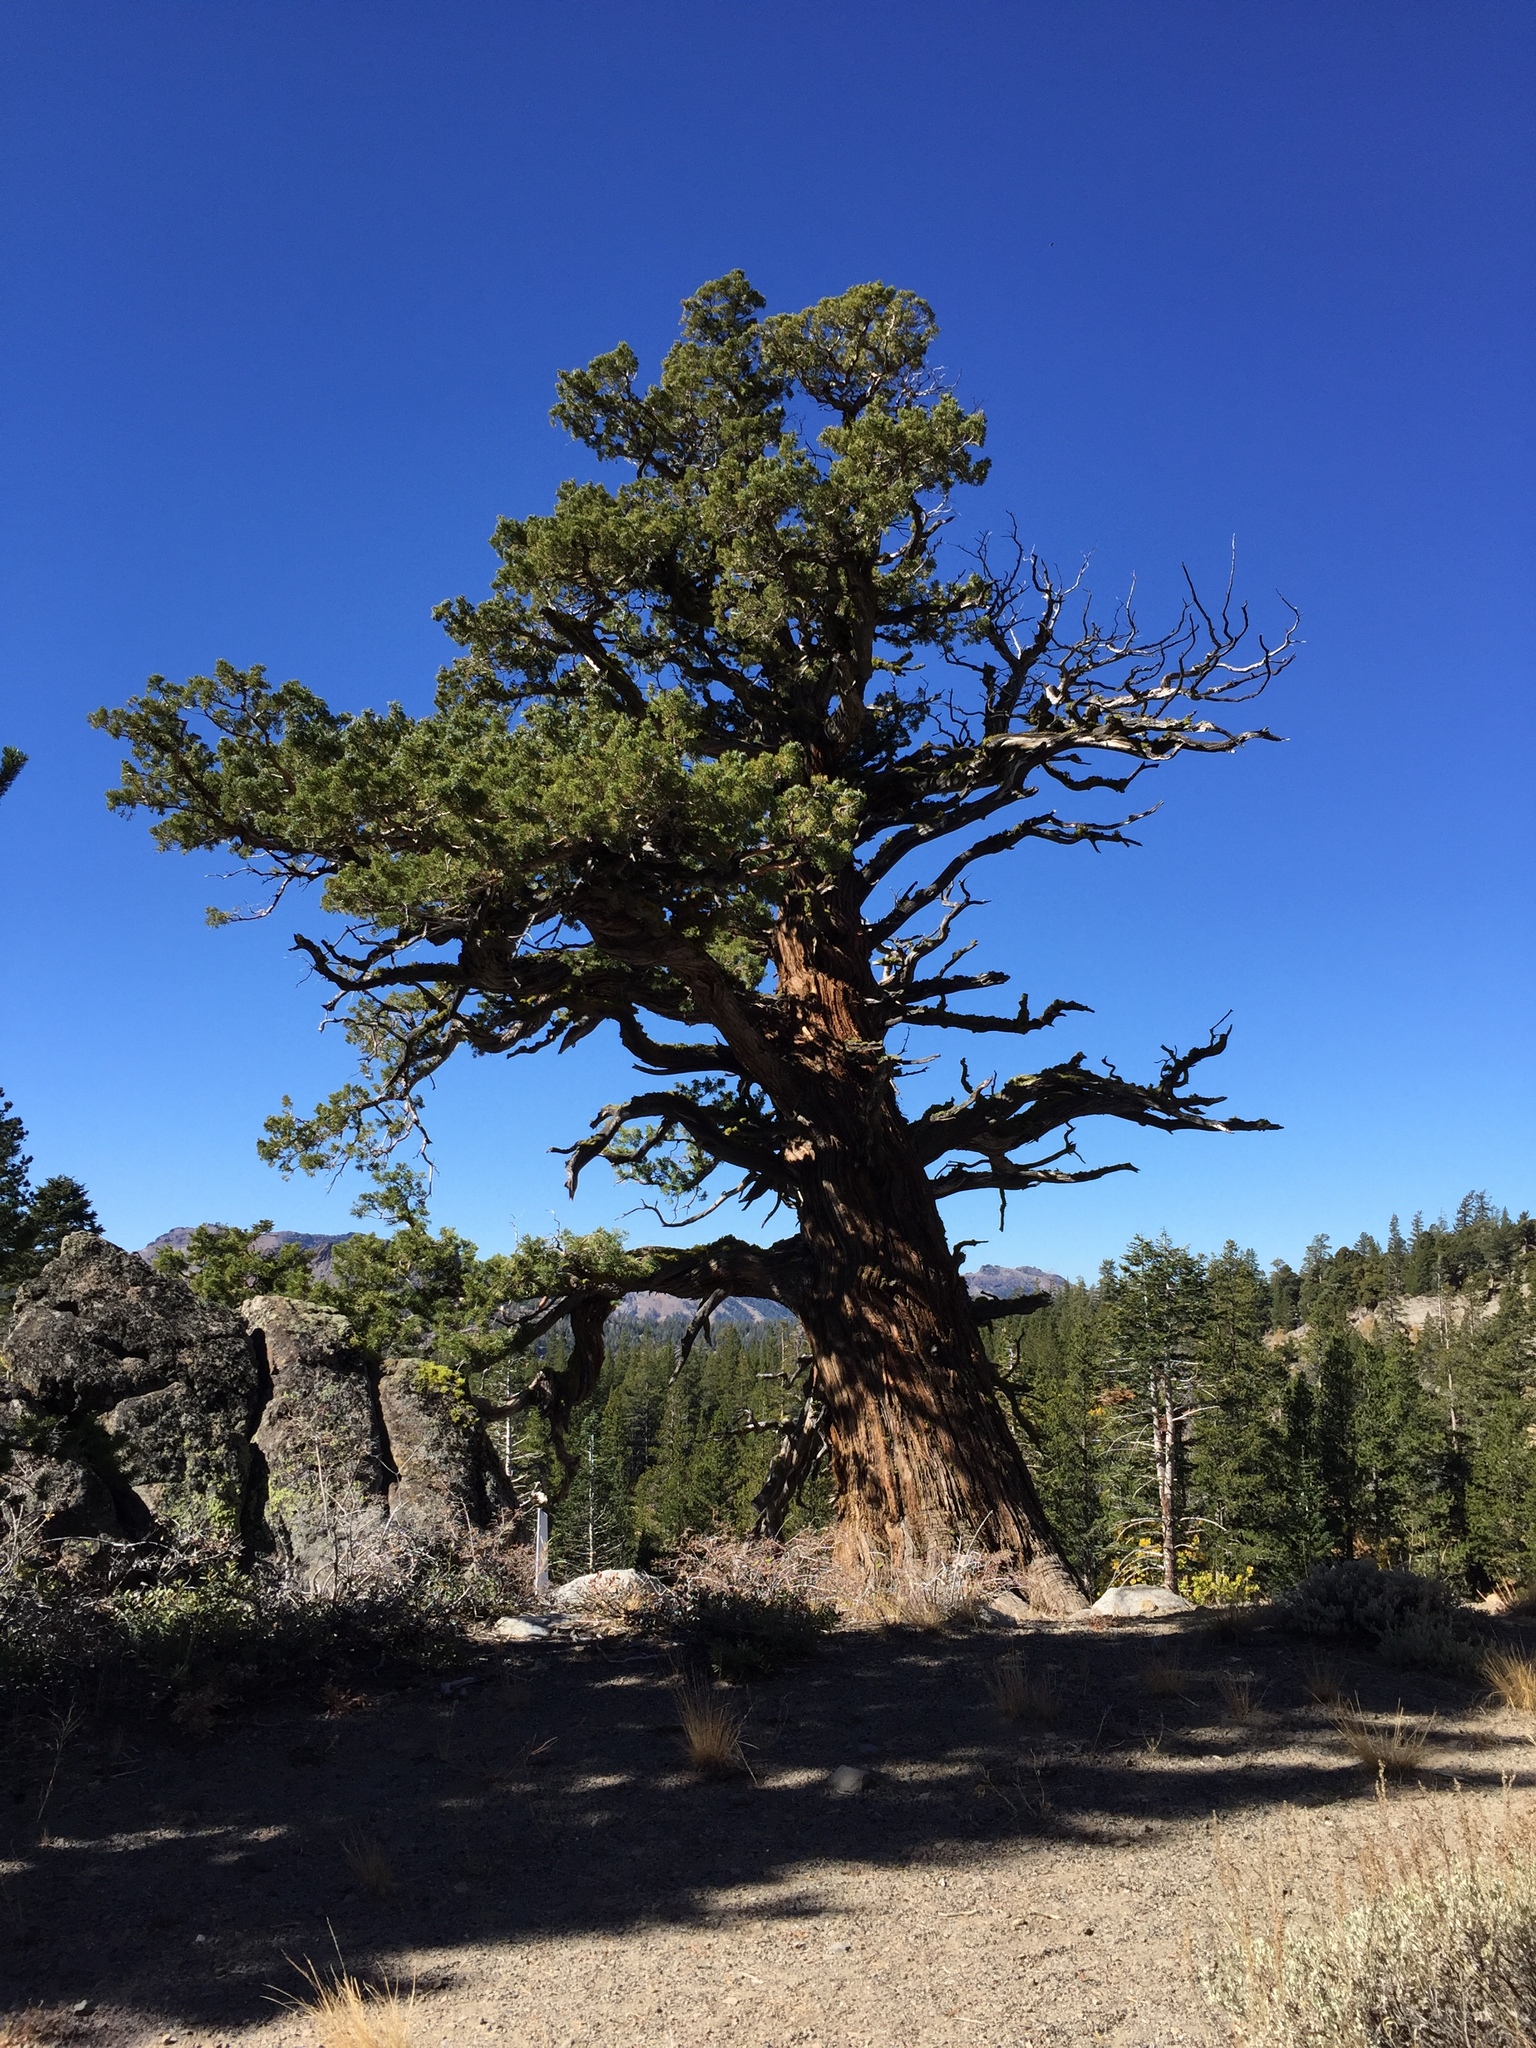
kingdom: Plantae
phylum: Tracheophyta
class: Pinopsida
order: Pinales
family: Cupressaceae
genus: Juniperus
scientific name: Juniperus occidentalis
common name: Western juniper
